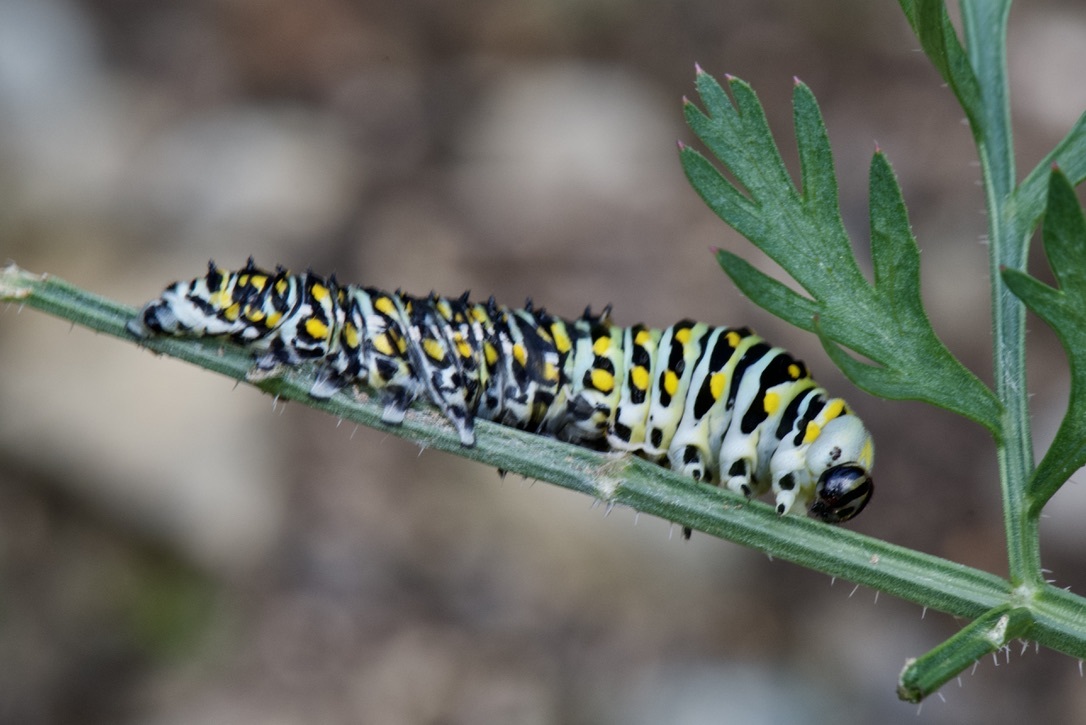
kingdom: Animalia
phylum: Arthropoda
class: Insecta
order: Lepidoptera
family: Papilionidae
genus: Papilio
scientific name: Papilio polyxenes
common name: Black swallowtail
